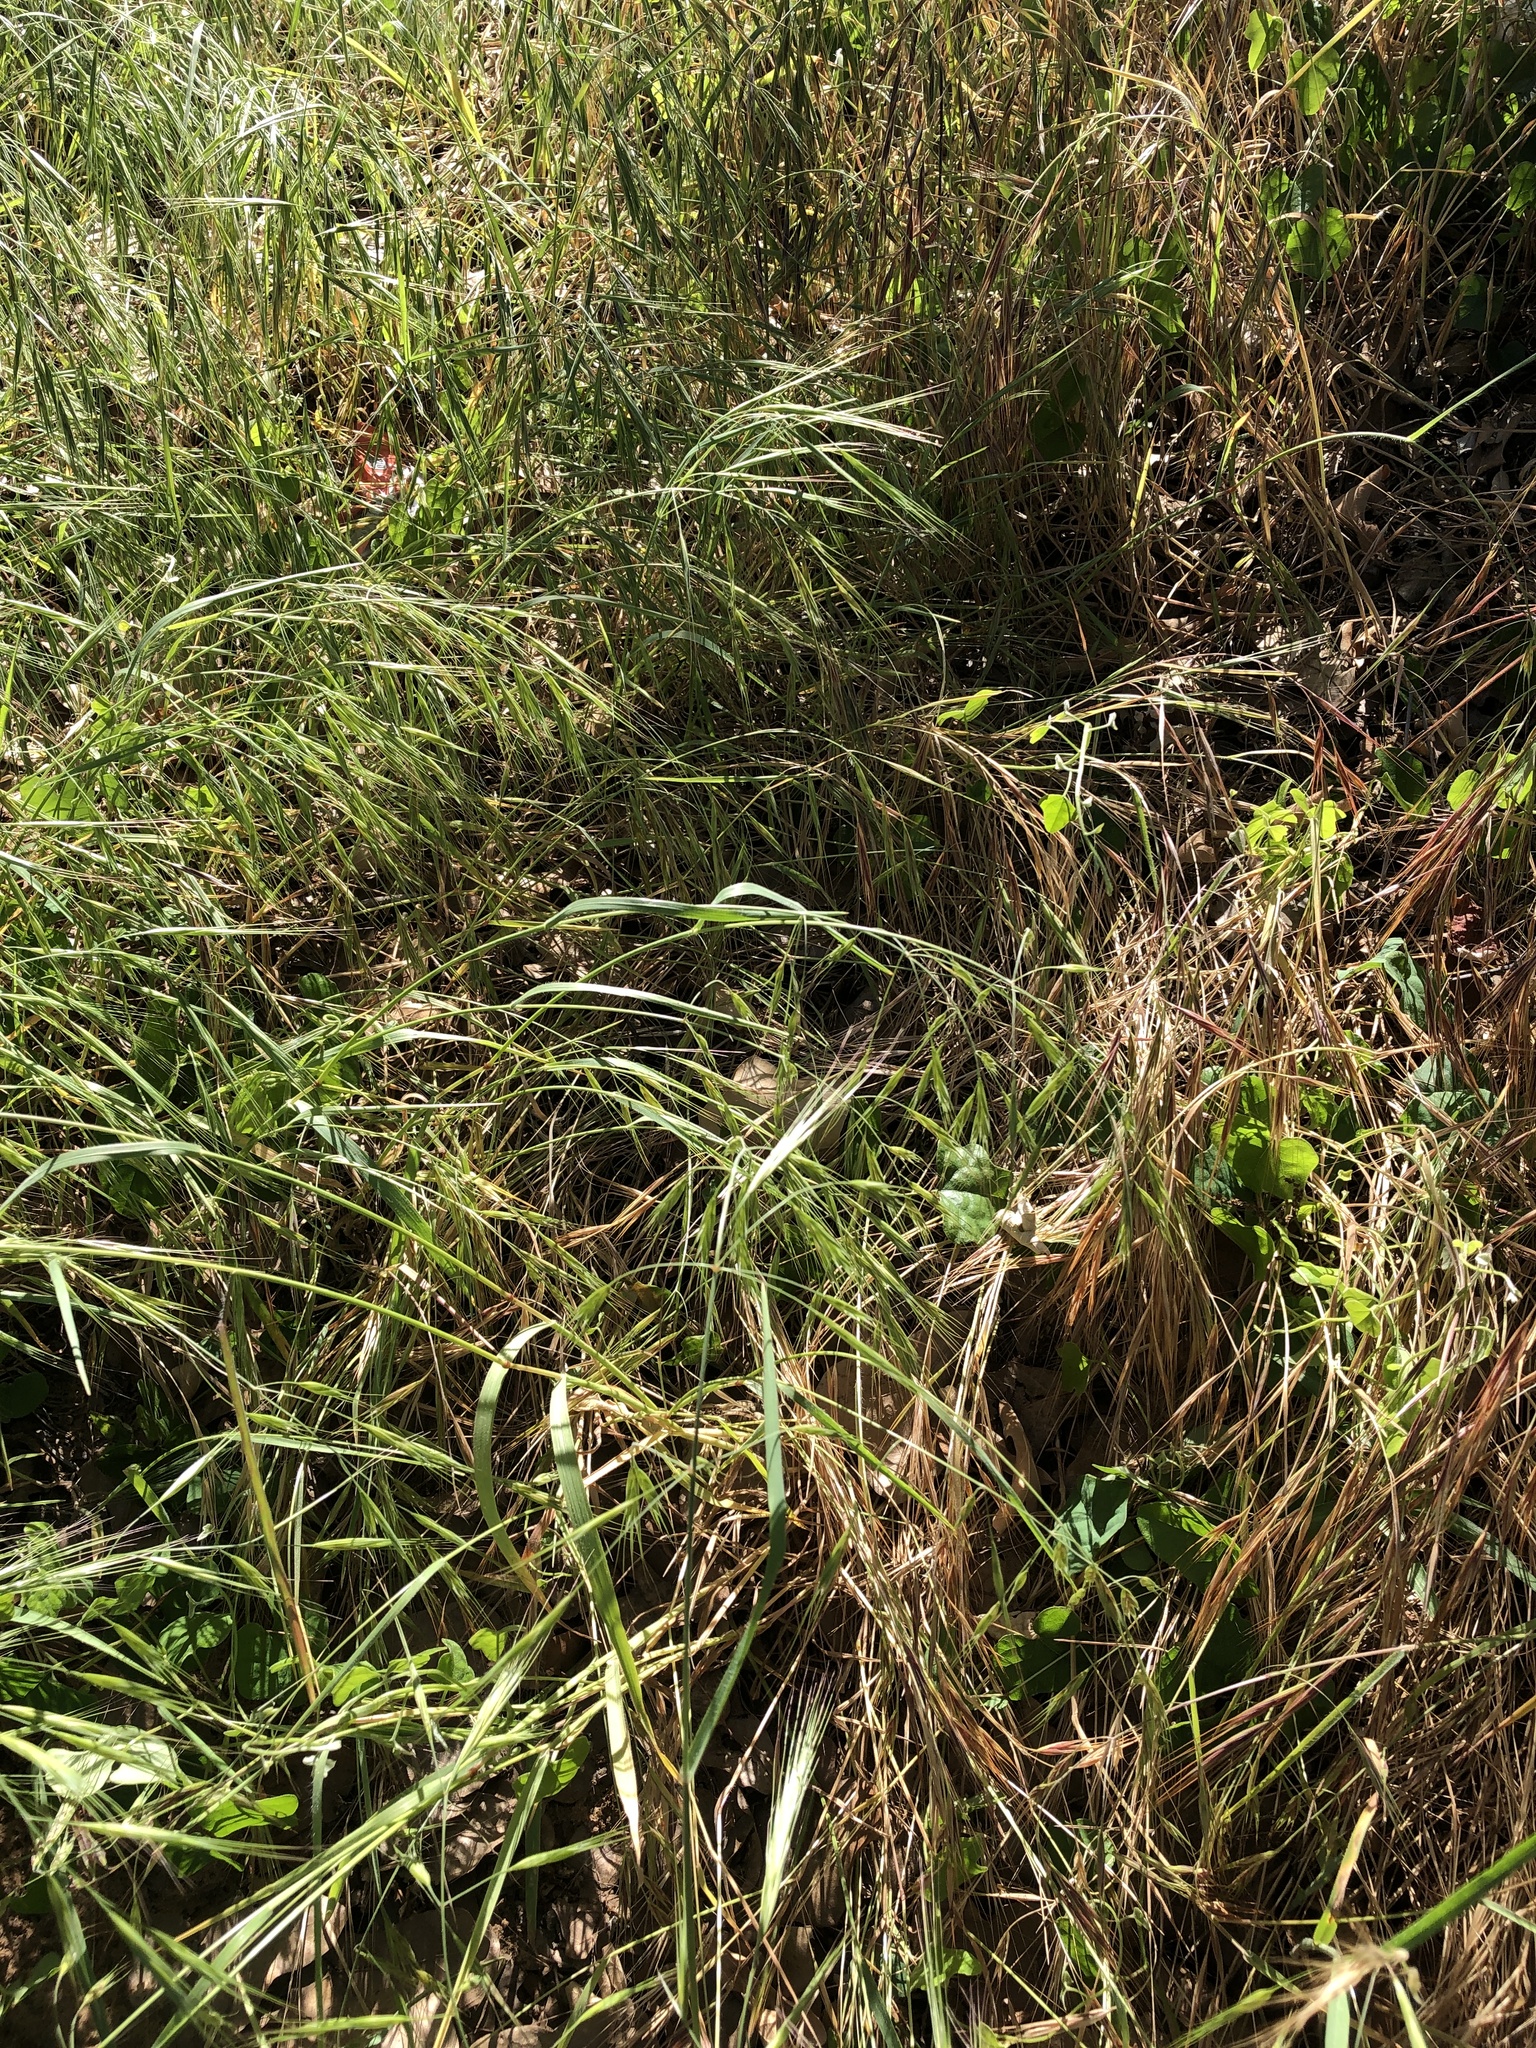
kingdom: Plantae
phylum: Tracheophyta
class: Liliopsida
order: Poales
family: Poaceae
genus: Bromus
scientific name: Bromus diandrus
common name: Ripgut brome
